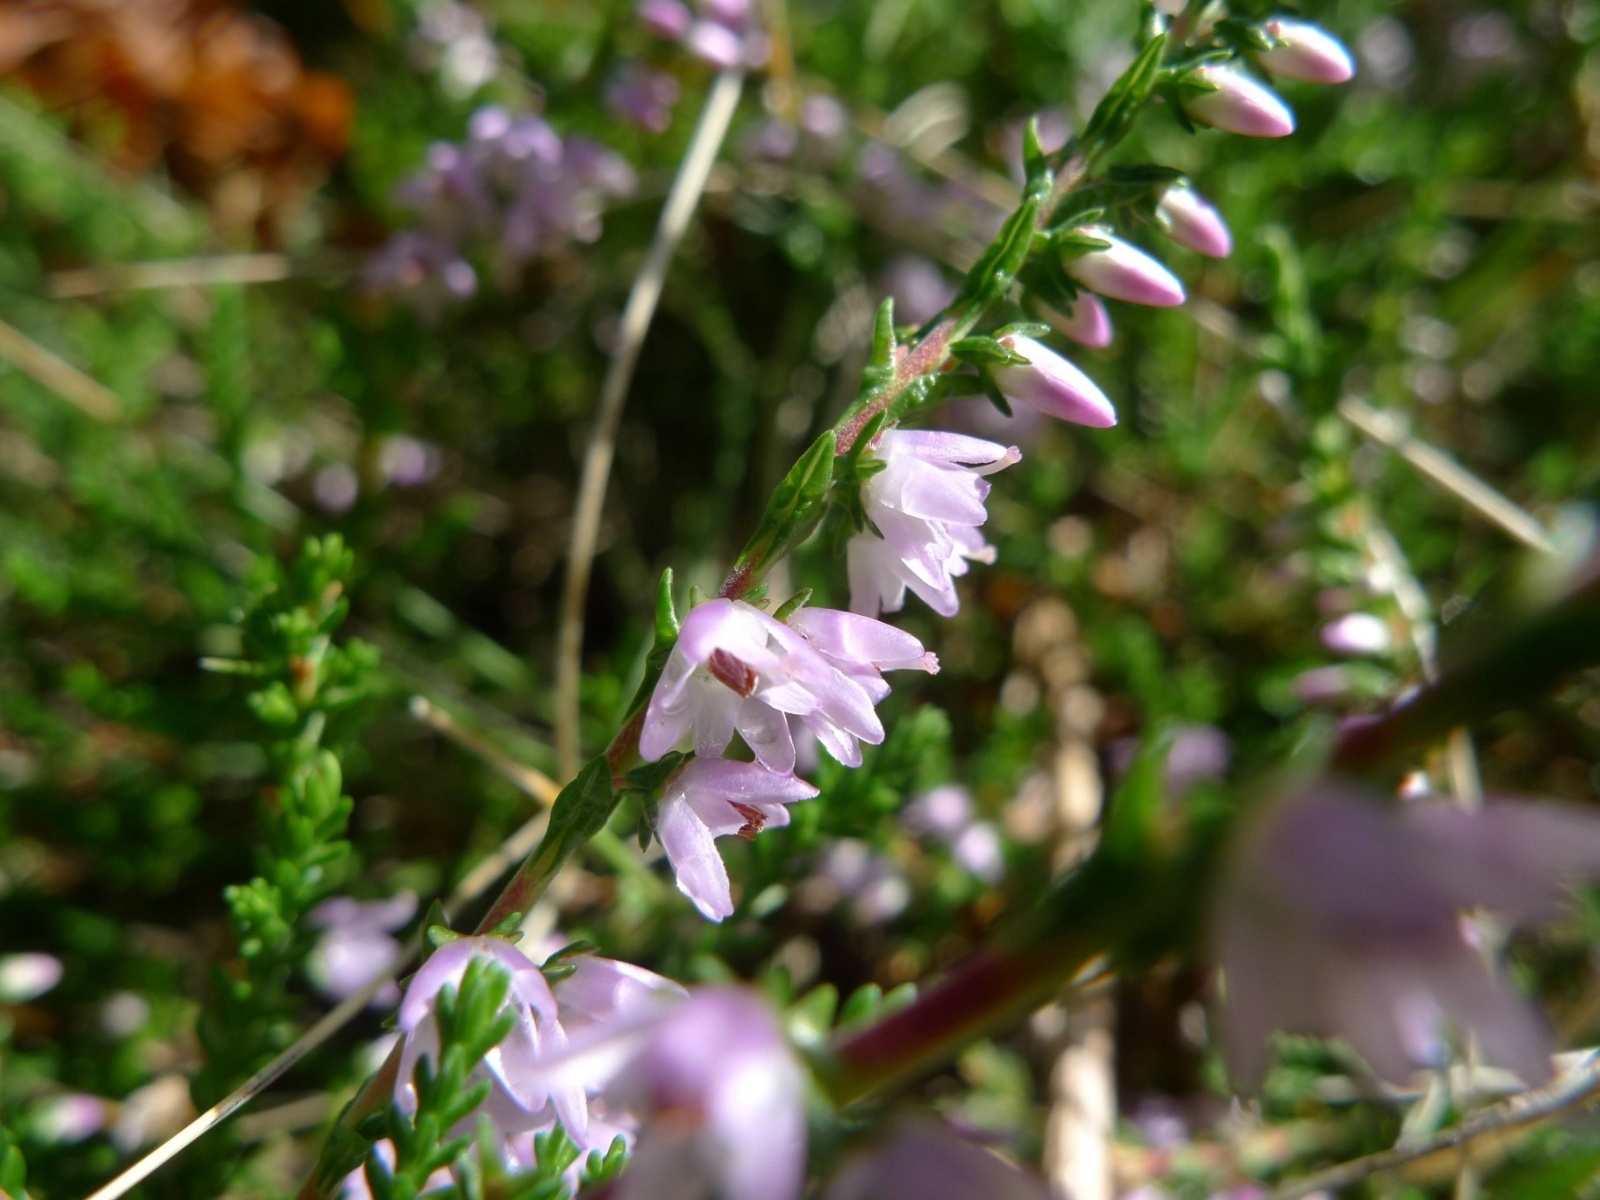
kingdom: Plantae
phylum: Tracheophyta
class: Magnoliopsida
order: Ericales
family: Ericaceae
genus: Calluna
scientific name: Calluna vulgaris
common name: Heather
